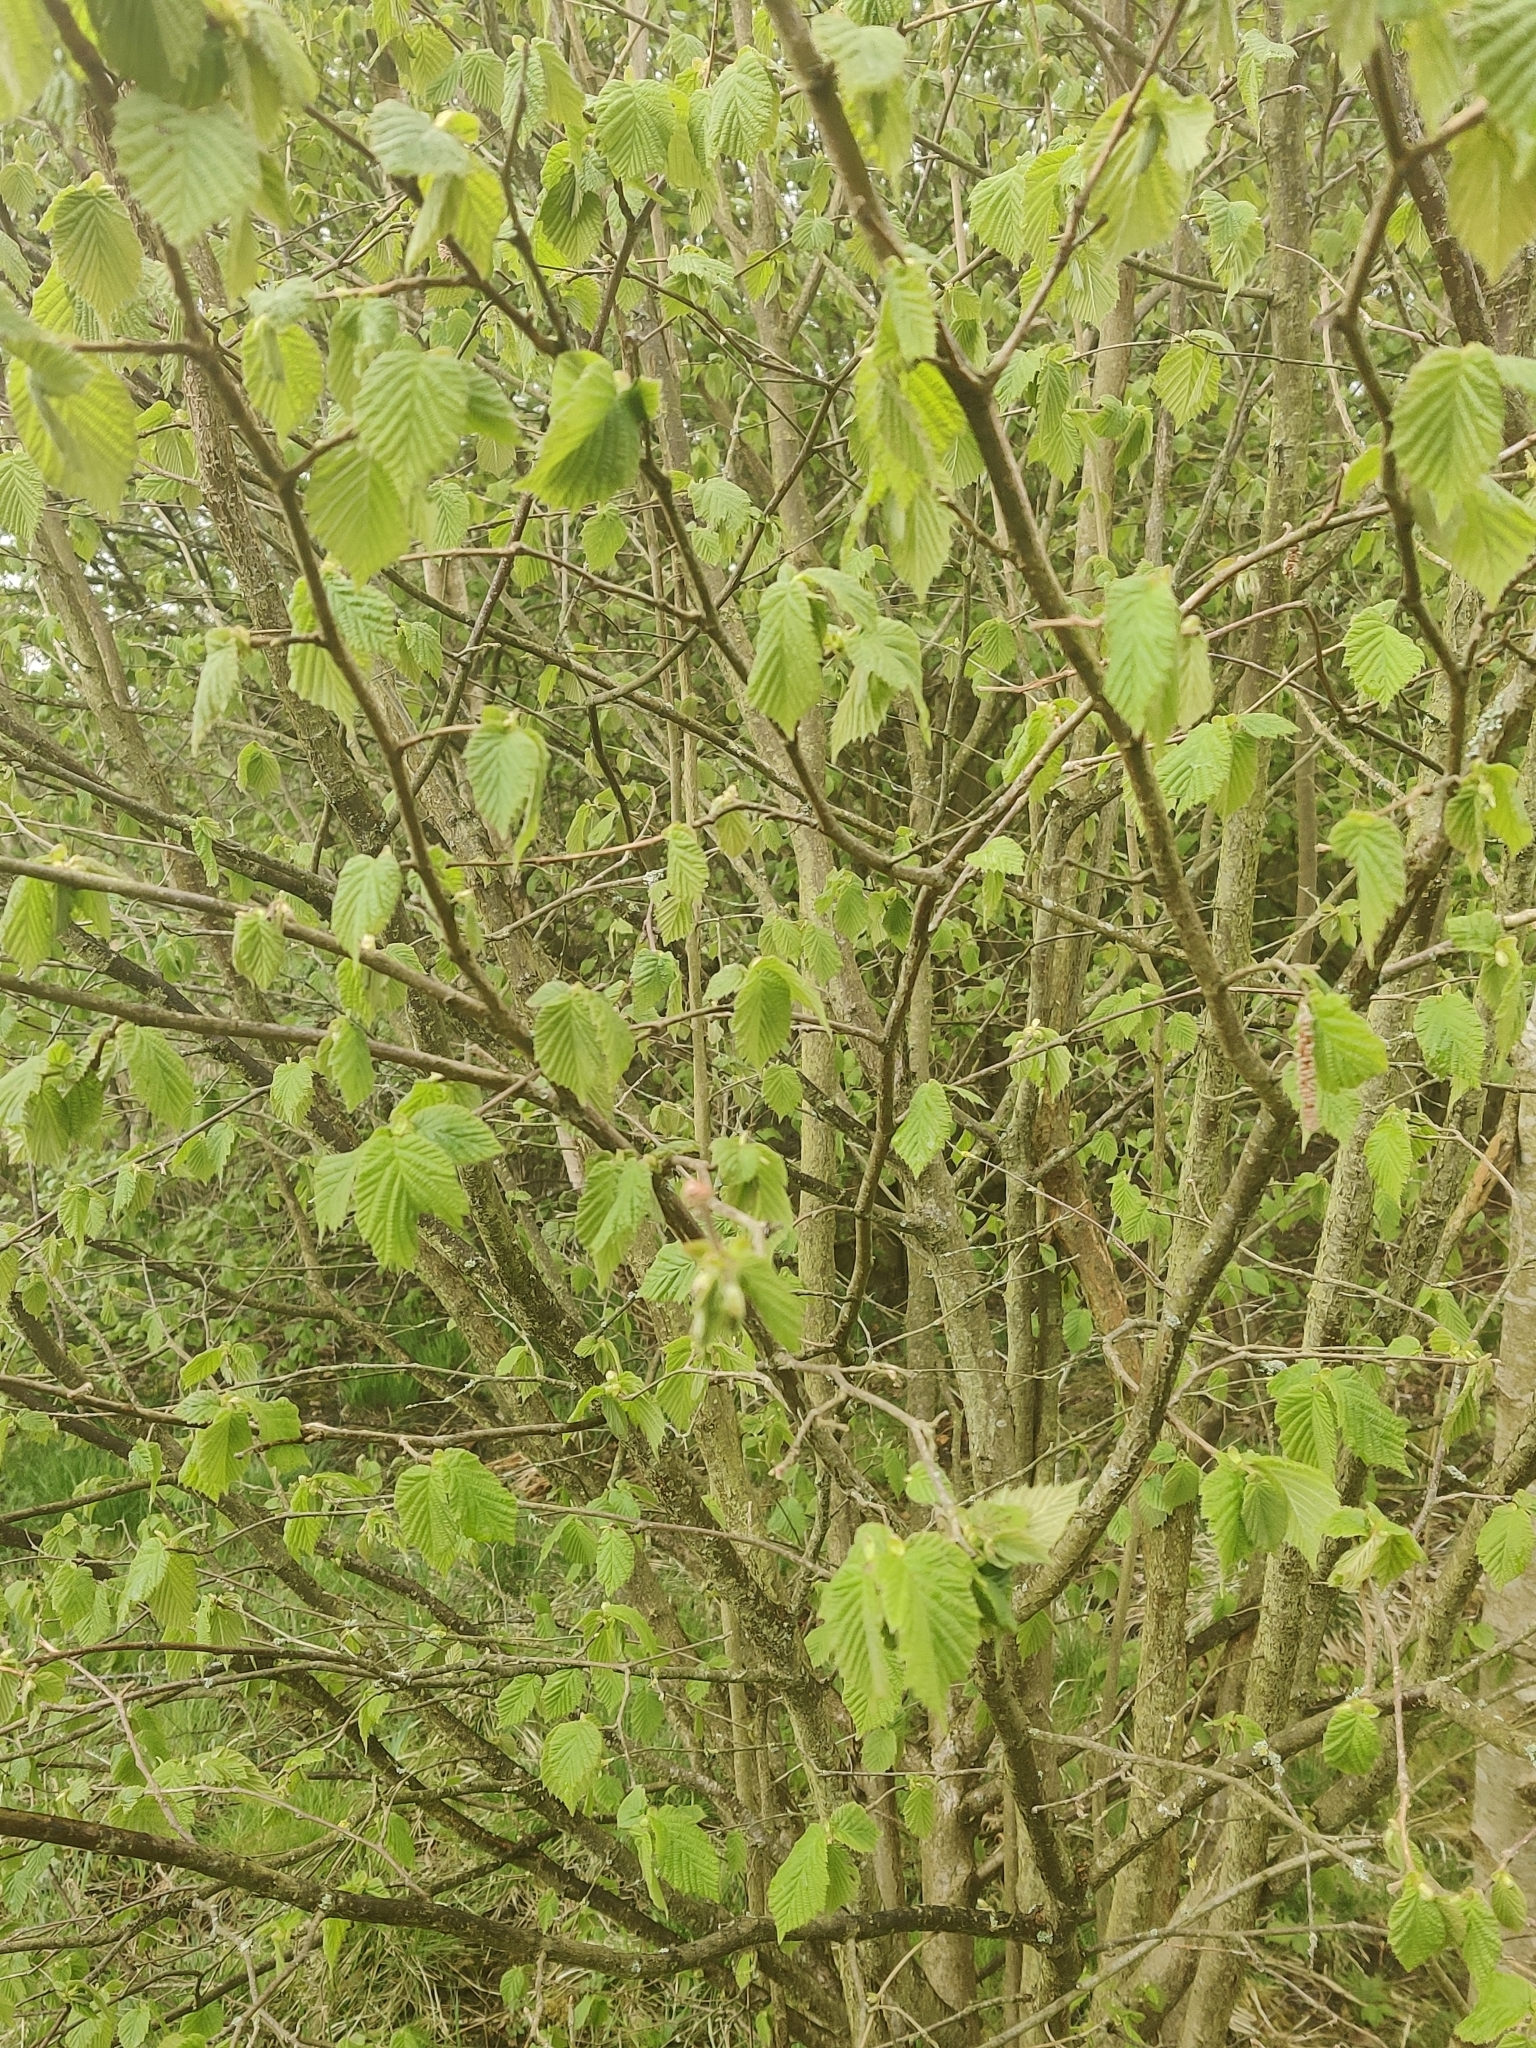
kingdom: Plantae
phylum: Tracheophyta
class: Magnoliopsida
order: Fagales
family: Betulaceae
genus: Corylus
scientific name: Corylus avellana
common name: European hazel
